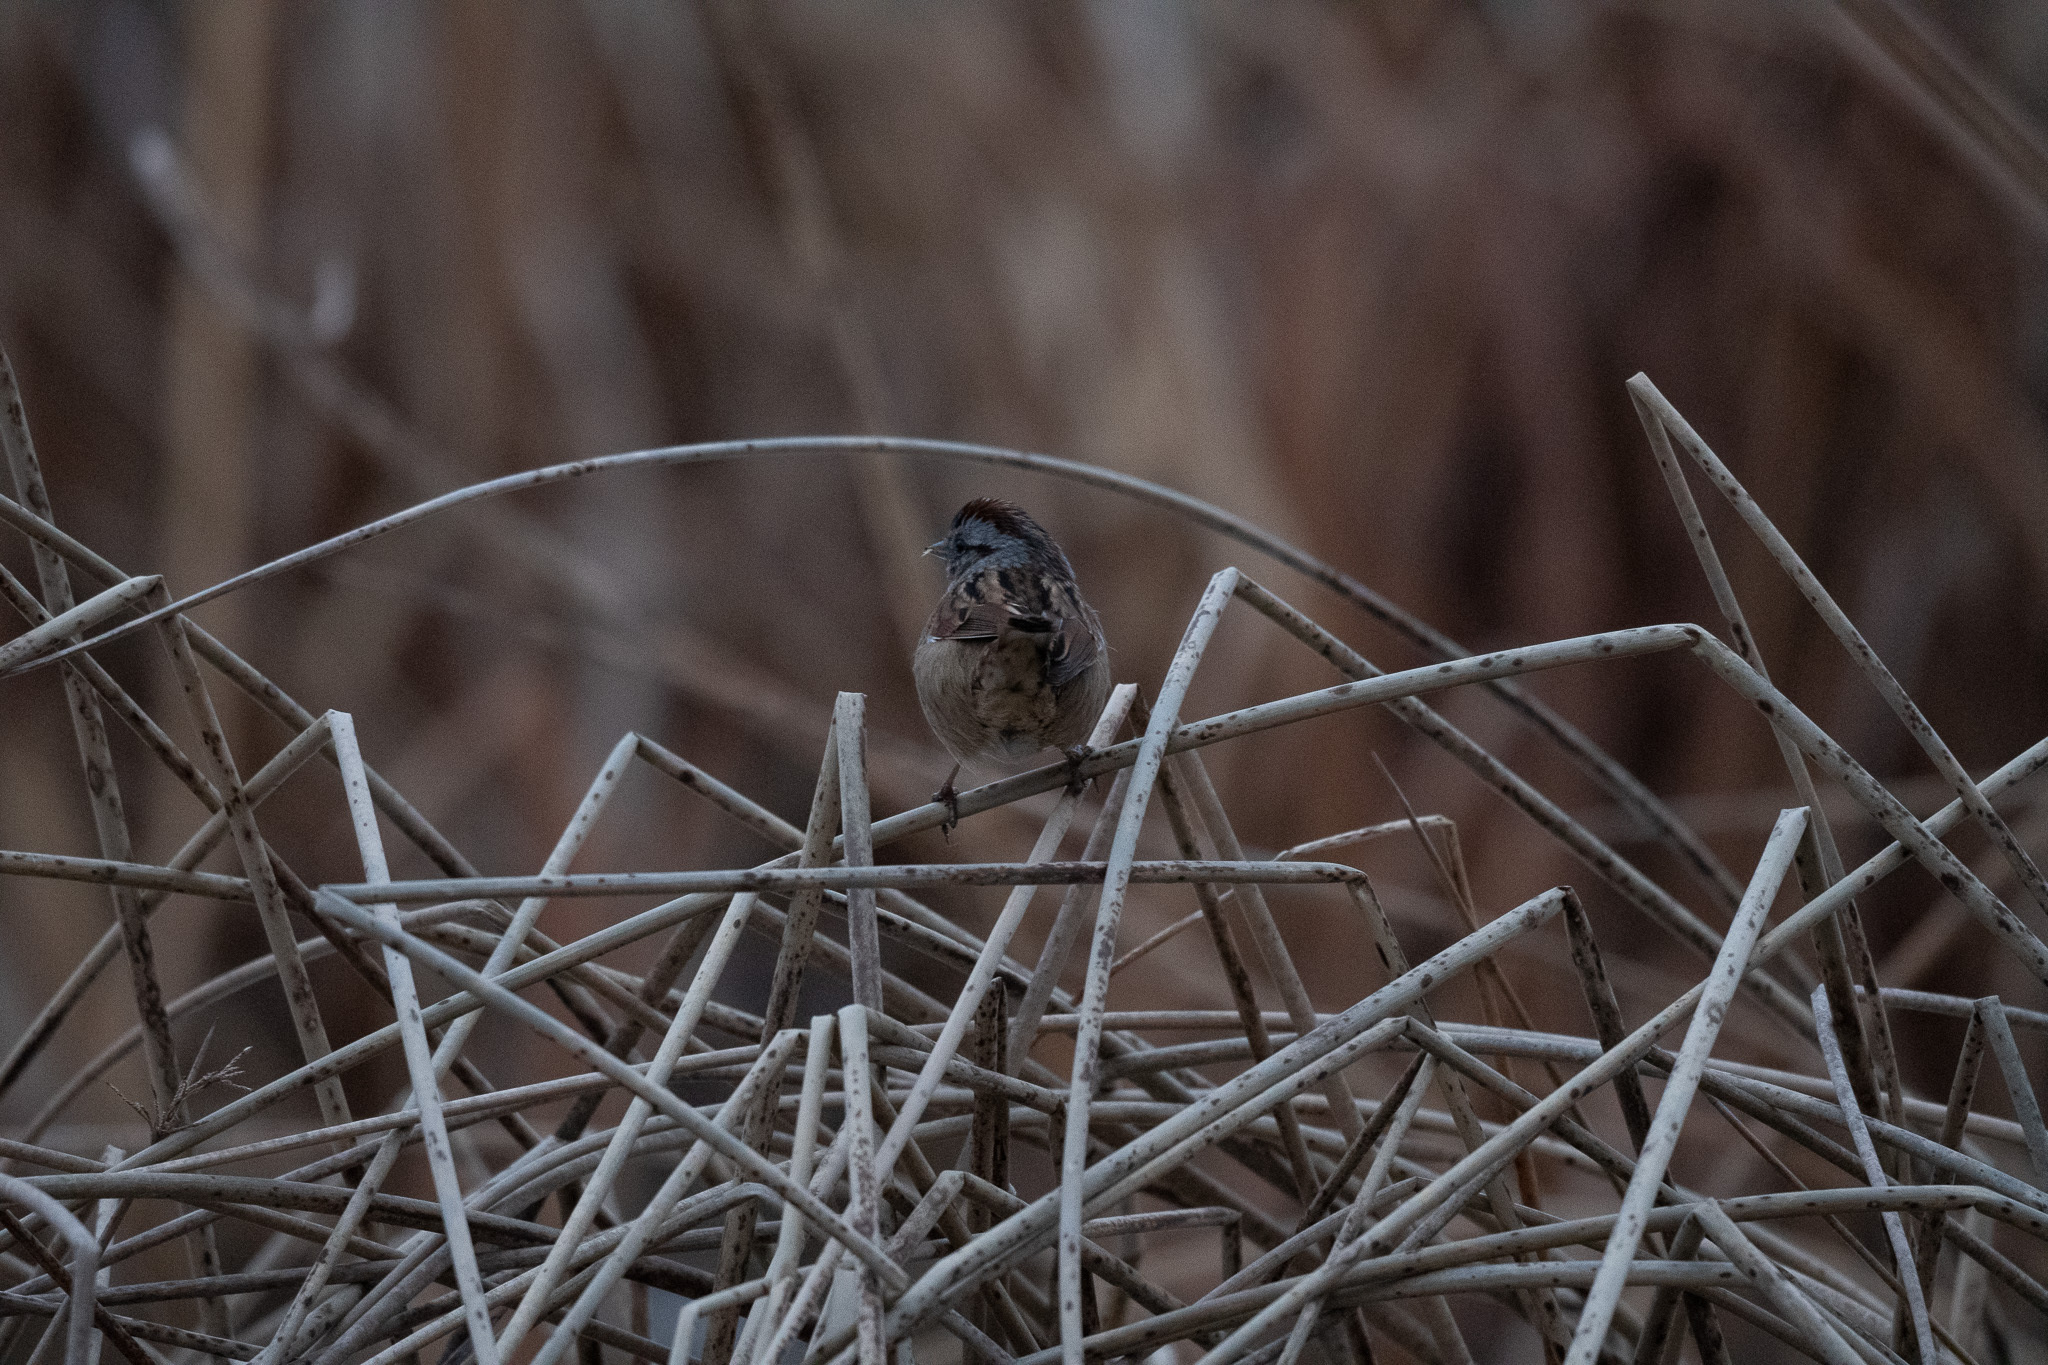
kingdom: Animalia
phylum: Chordata
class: Aves
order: Passeriformes
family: Passerellidae
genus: Melospiza
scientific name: Melospiza georgiana
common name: Swamp sparrow
